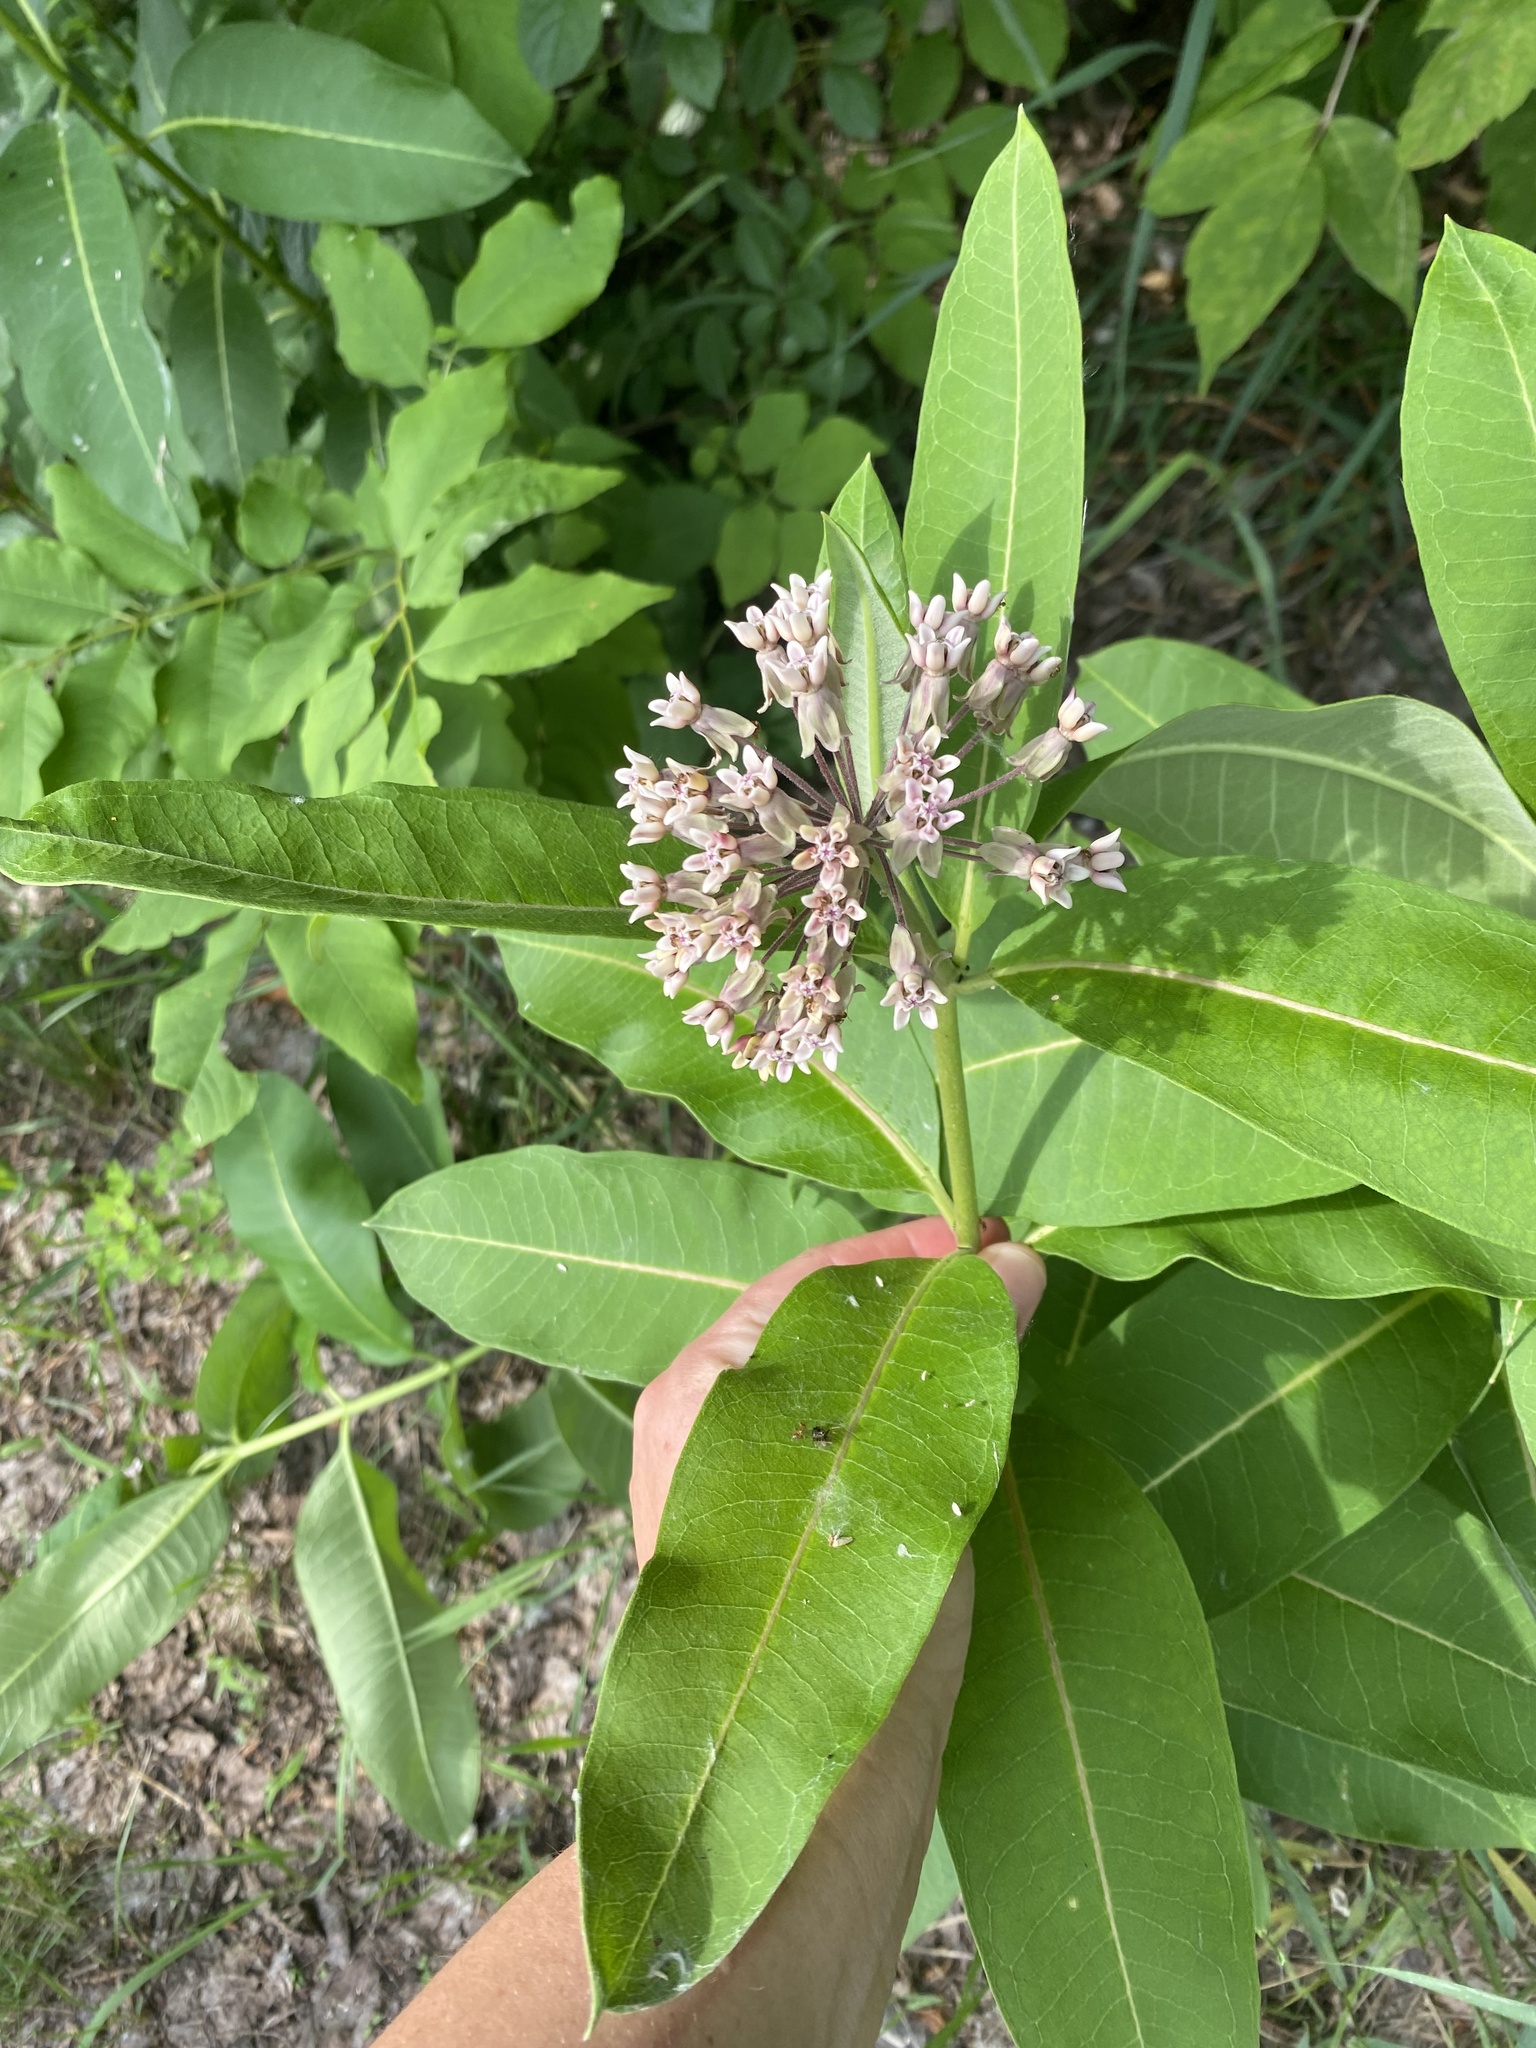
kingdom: Plantae
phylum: Tracheophyta
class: Magnoliopsida
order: Gentianales
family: Apocynaceae
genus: Asclepias
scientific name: Asclepias syriaca
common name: Common milkweed
